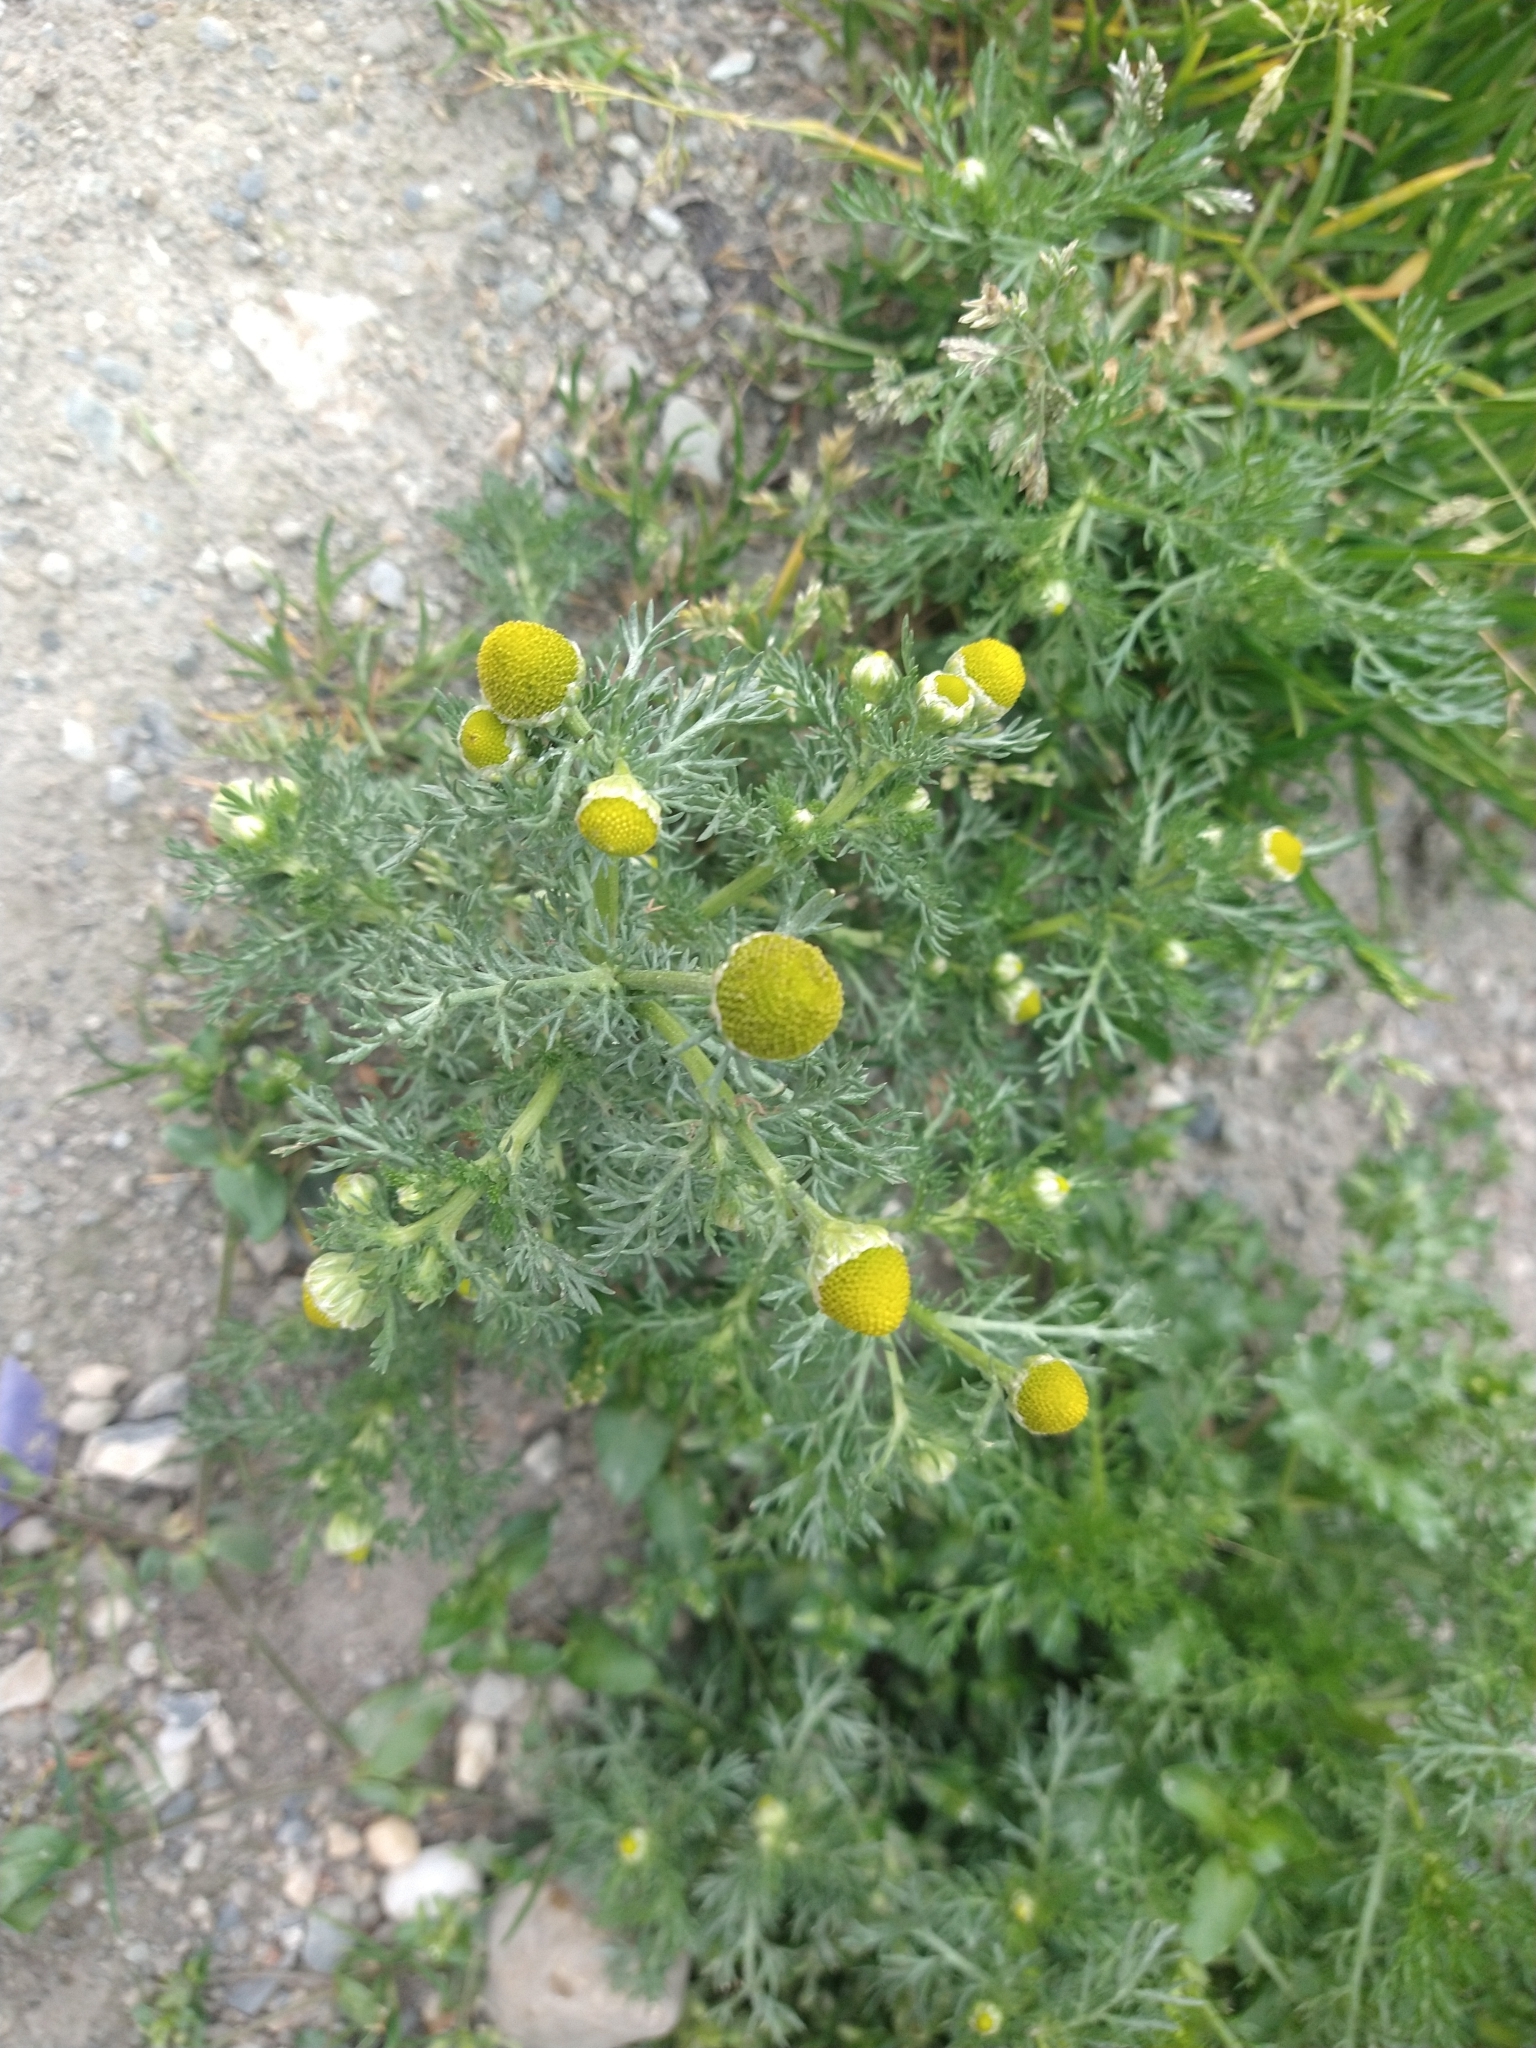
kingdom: Plantae
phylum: Tracheophyta
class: Magnoliopsida
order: Asterales
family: Asteraceae
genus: Matricaria
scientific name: Matricaria discoidea
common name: Disc mayweed
